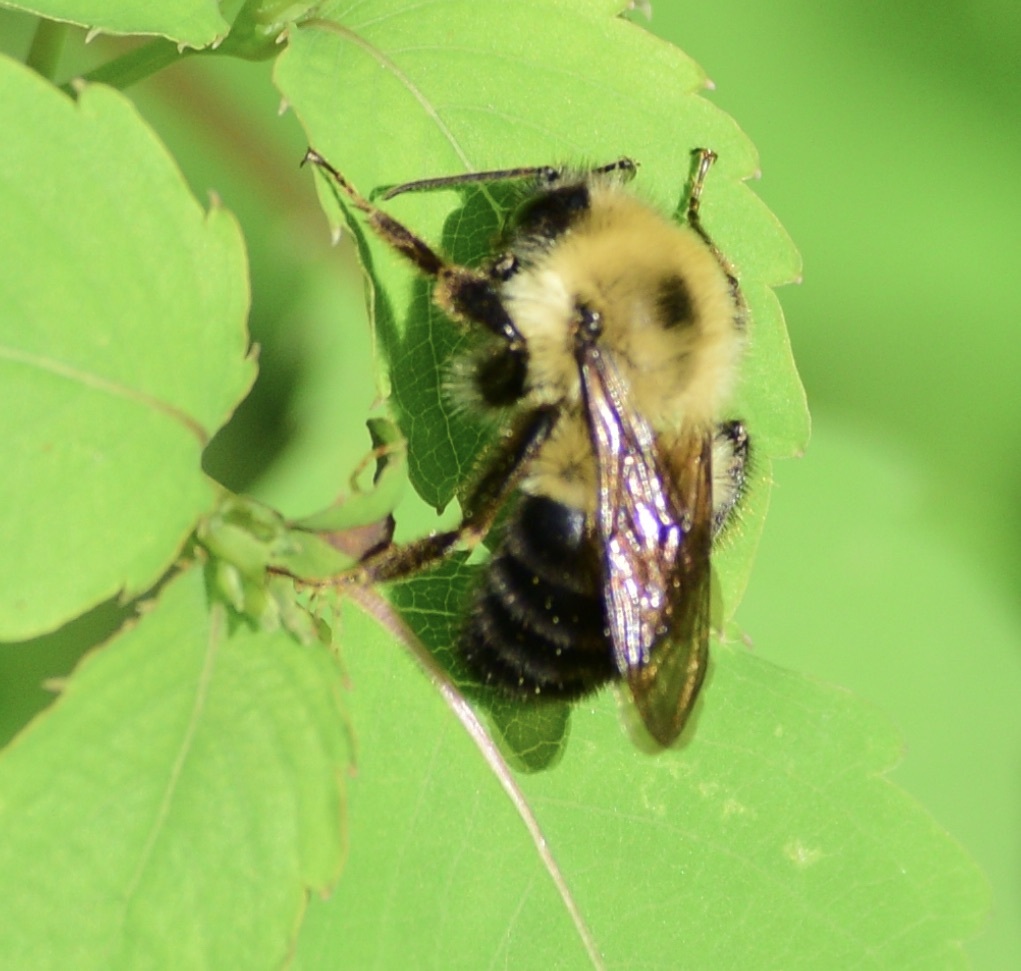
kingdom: Animalia
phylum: Arthropoda
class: Insecta
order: Hymenoptera
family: Apidae
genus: Bombus
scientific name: Bombus bimaculatus
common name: Two-spotted bumble bee
